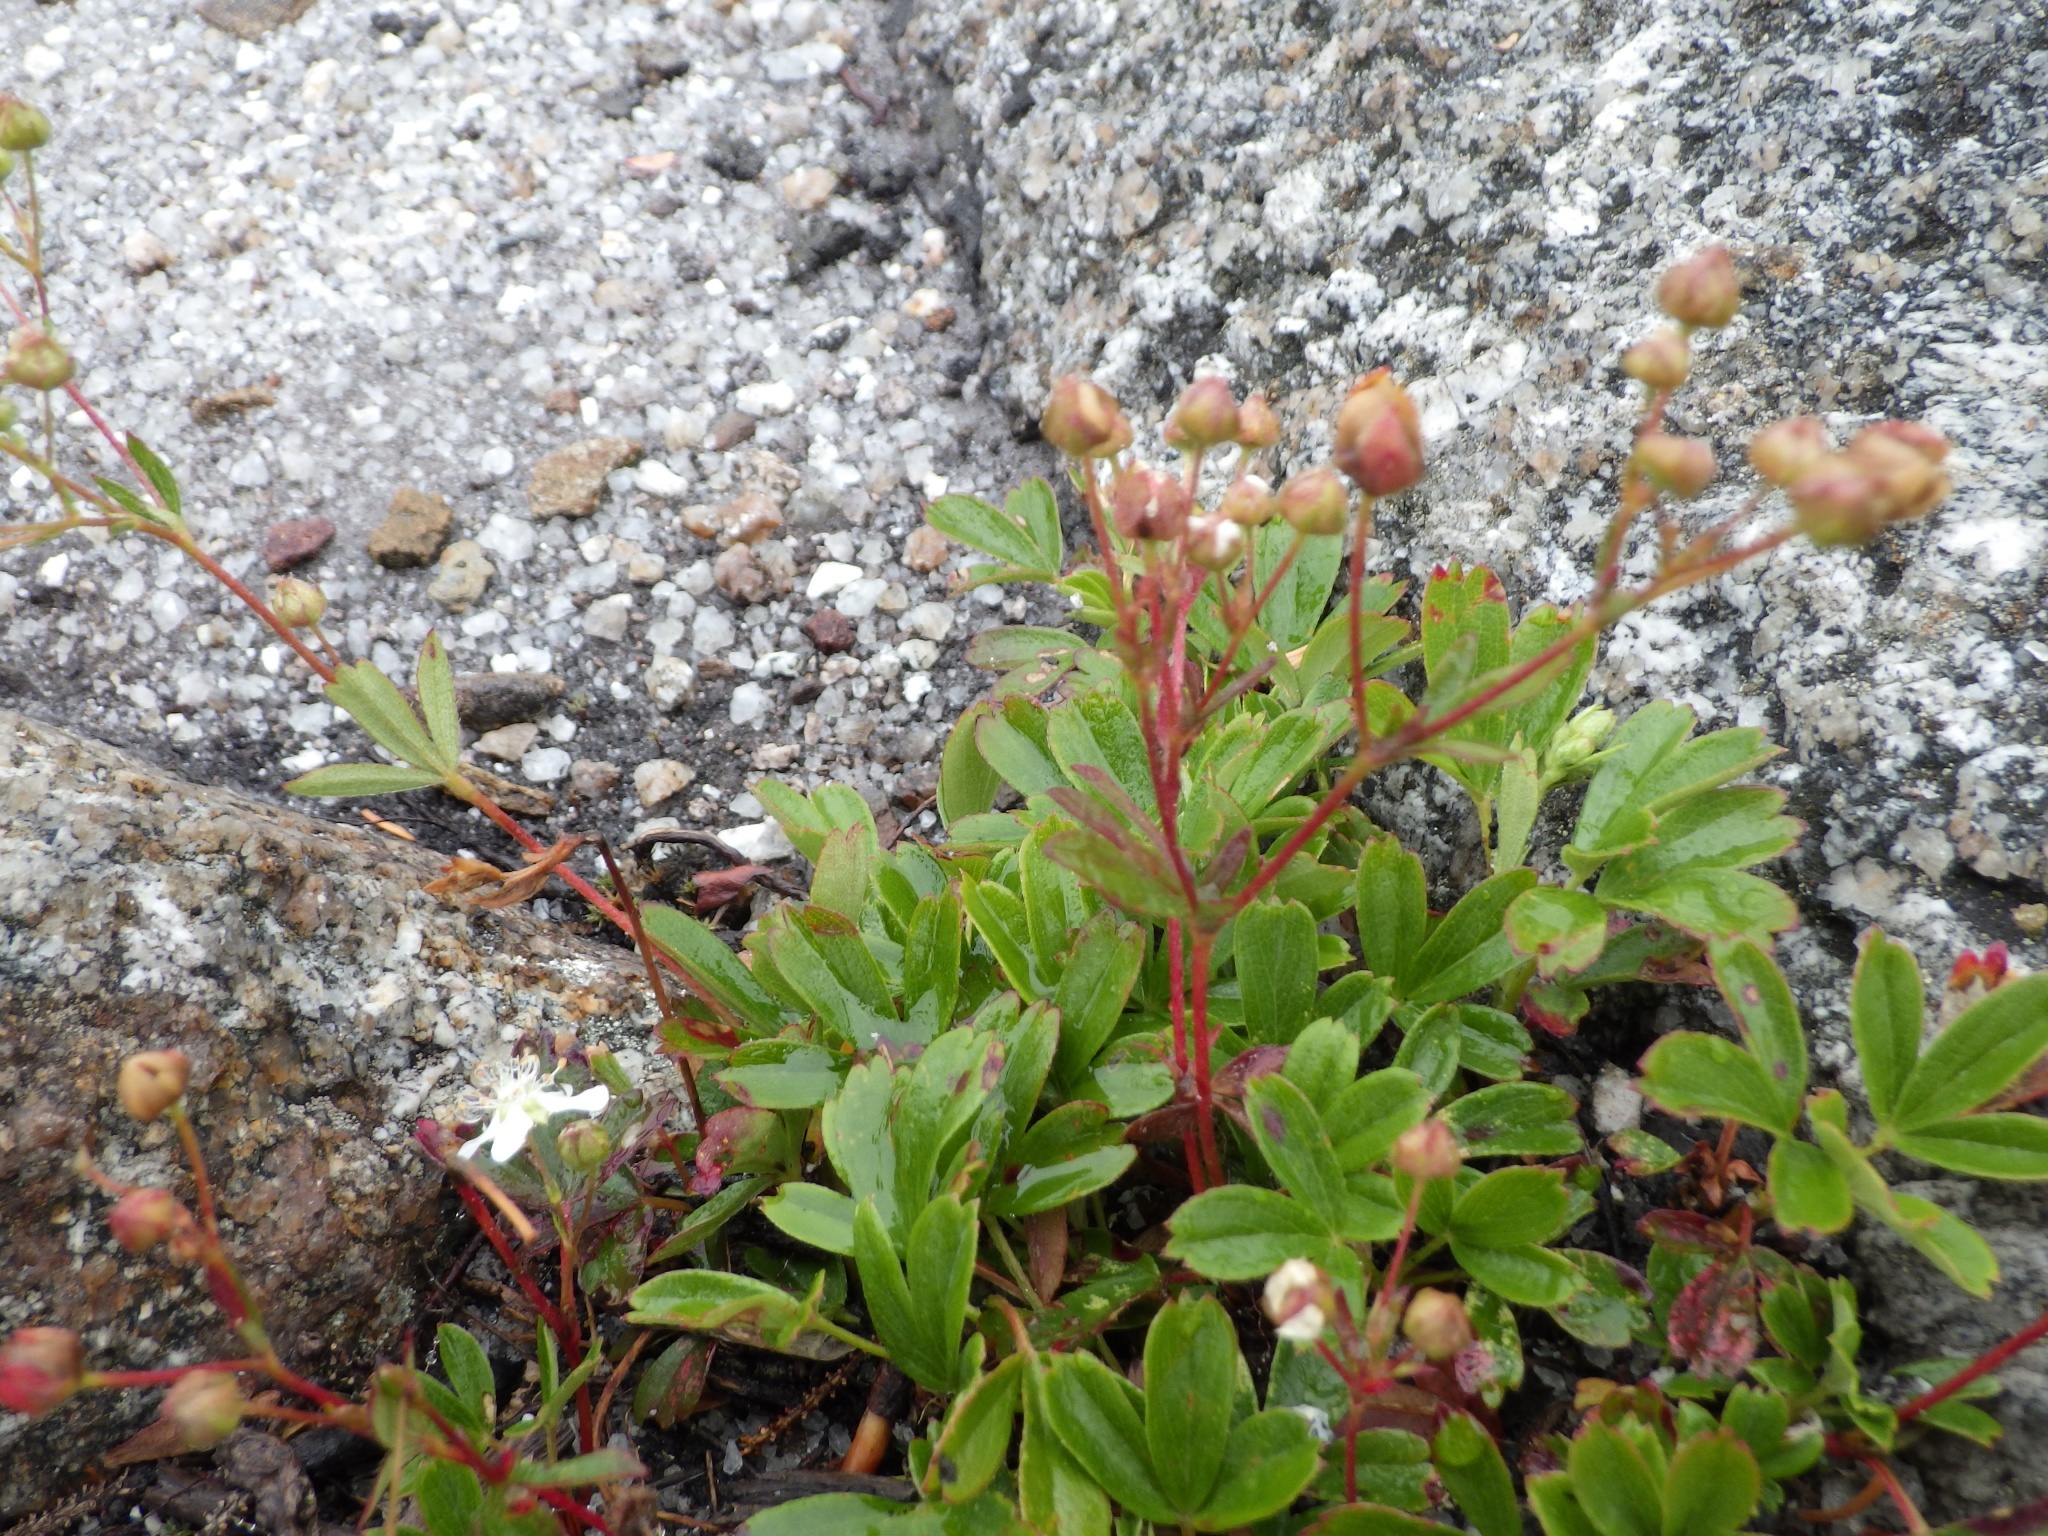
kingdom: Plantae
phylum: Tracheophyta
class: Magnoliopsida
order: Rosales
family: Rosaceae
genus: Sibbaldia
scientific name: Sibbaldia tridentata
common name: Three-toothed cinquefoil
